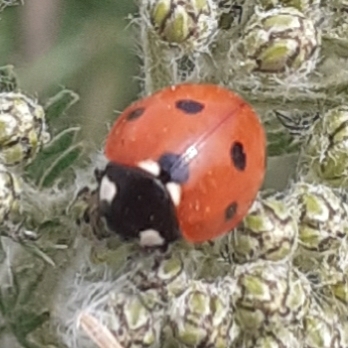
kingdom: Animalia
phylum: Arthropoda
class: Insecta
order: Coleoptera
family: Coccinellidae
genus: Coccinella
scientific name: Coccinella septempunctata
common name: Sevenspotted lady beetle
